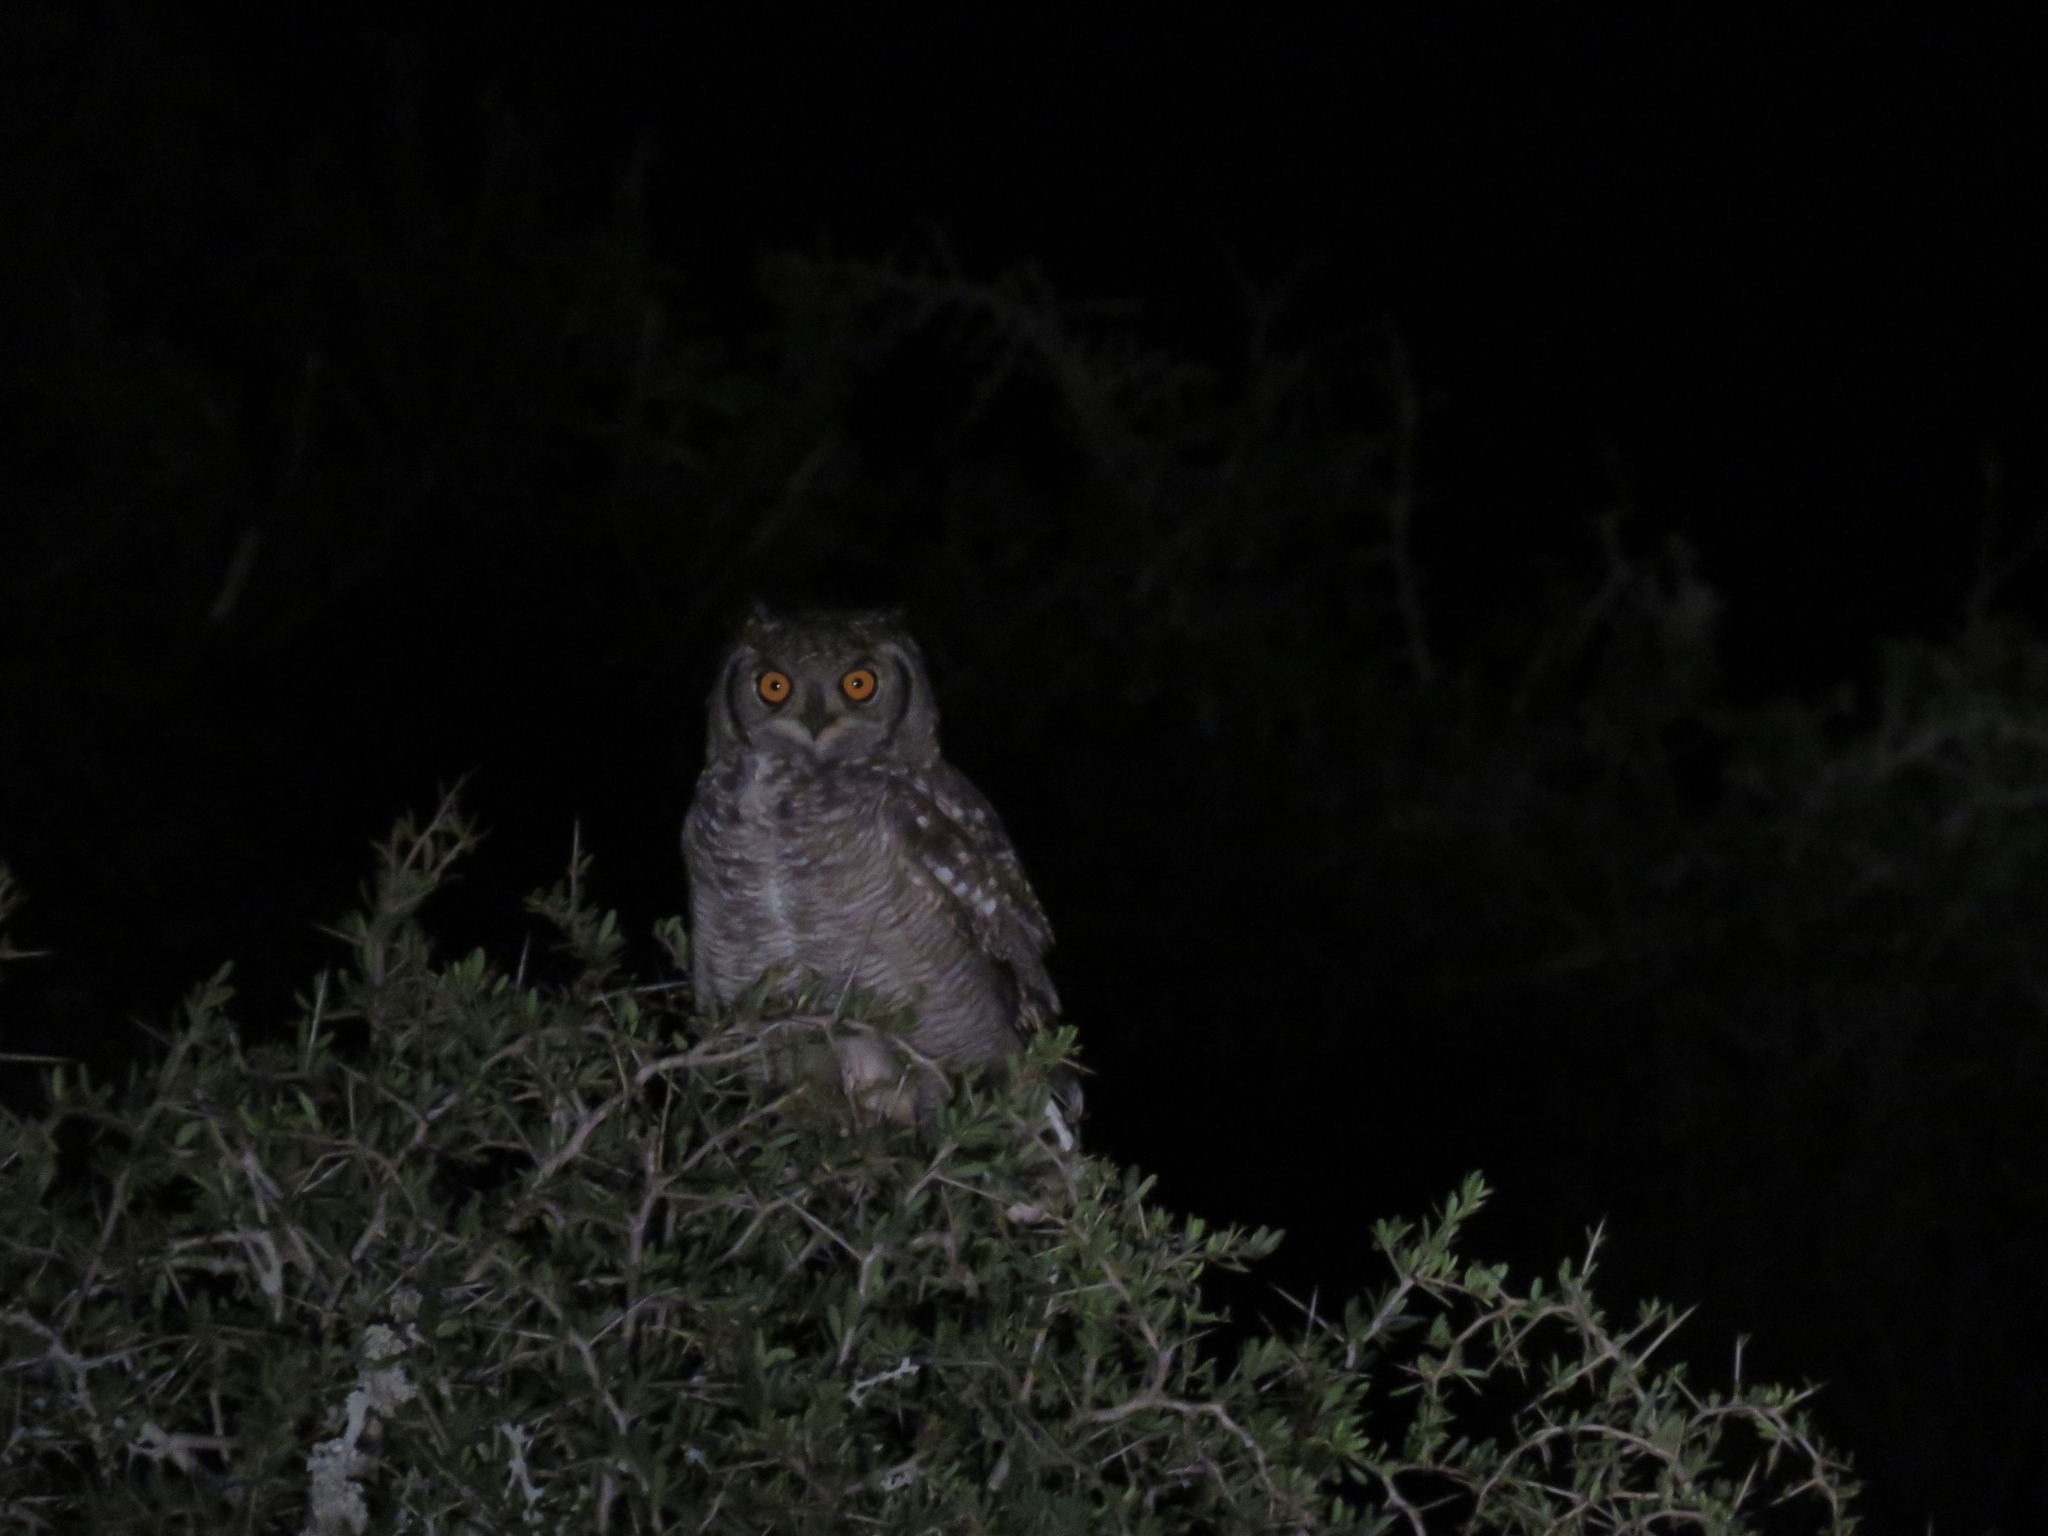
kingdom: Animalia
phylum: Chordata
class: Aves
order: Strigiformes
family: Strigidae
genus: Bubo
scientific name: Bubo africanus
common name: Spotted eagle-owl
